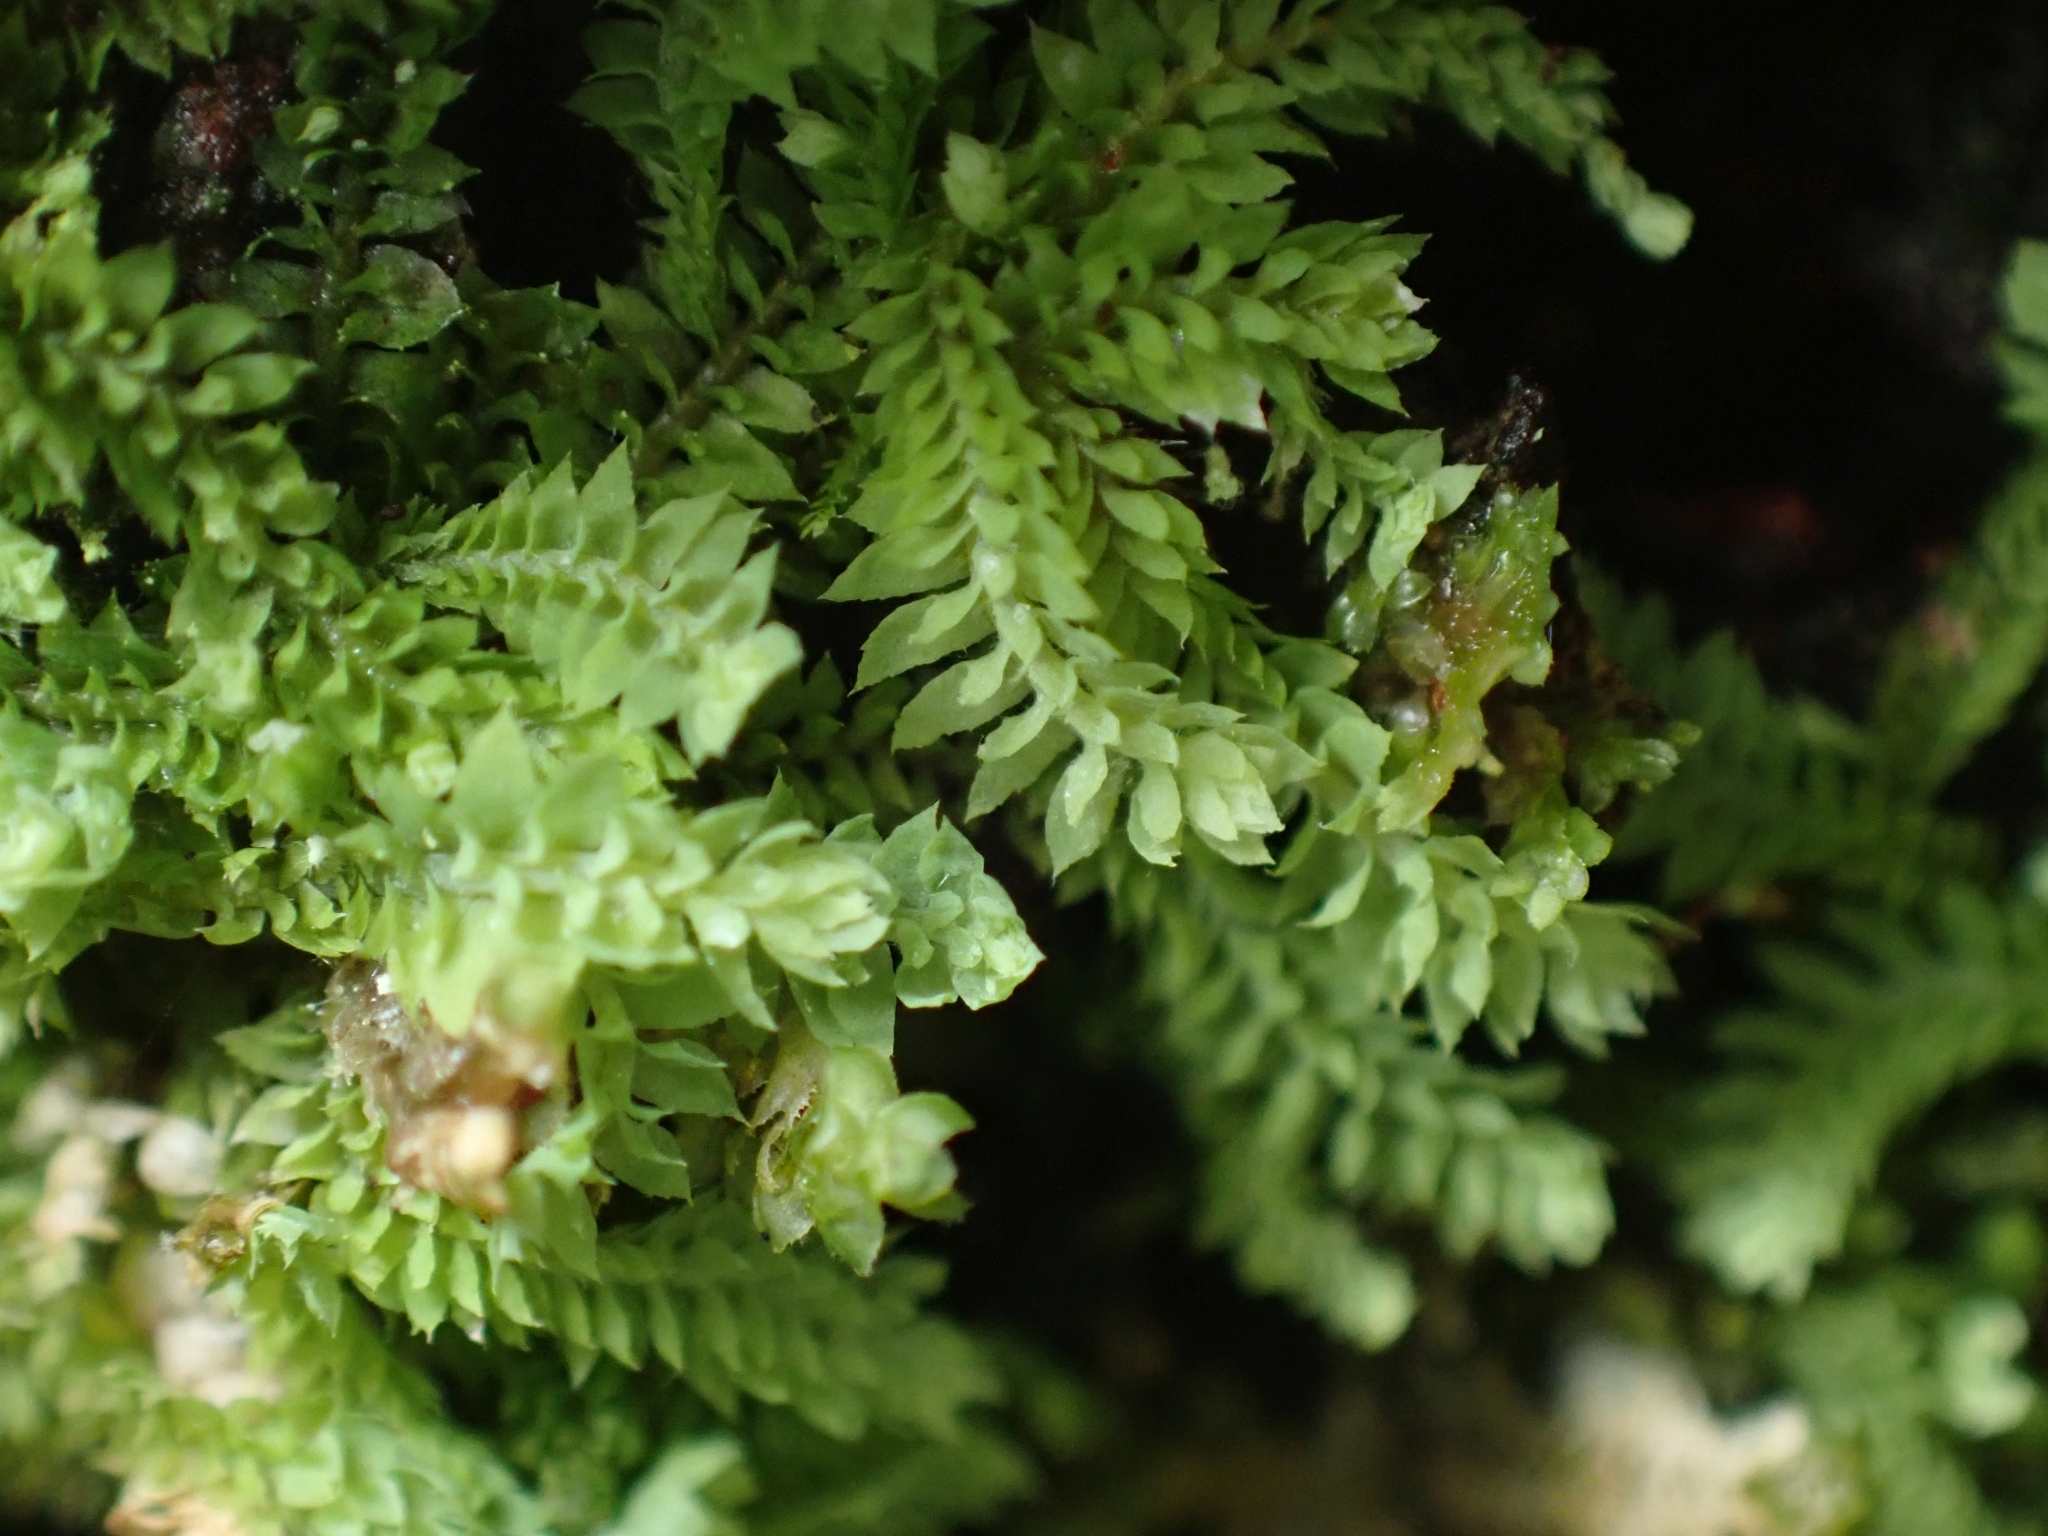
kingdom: Plantae
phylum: Marchantiophyta
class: Jungermanniopsida
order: Jungermanniales
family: Scapaniaceae
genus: Douinia
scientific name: Douinia ovata
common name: Waxy earwort
